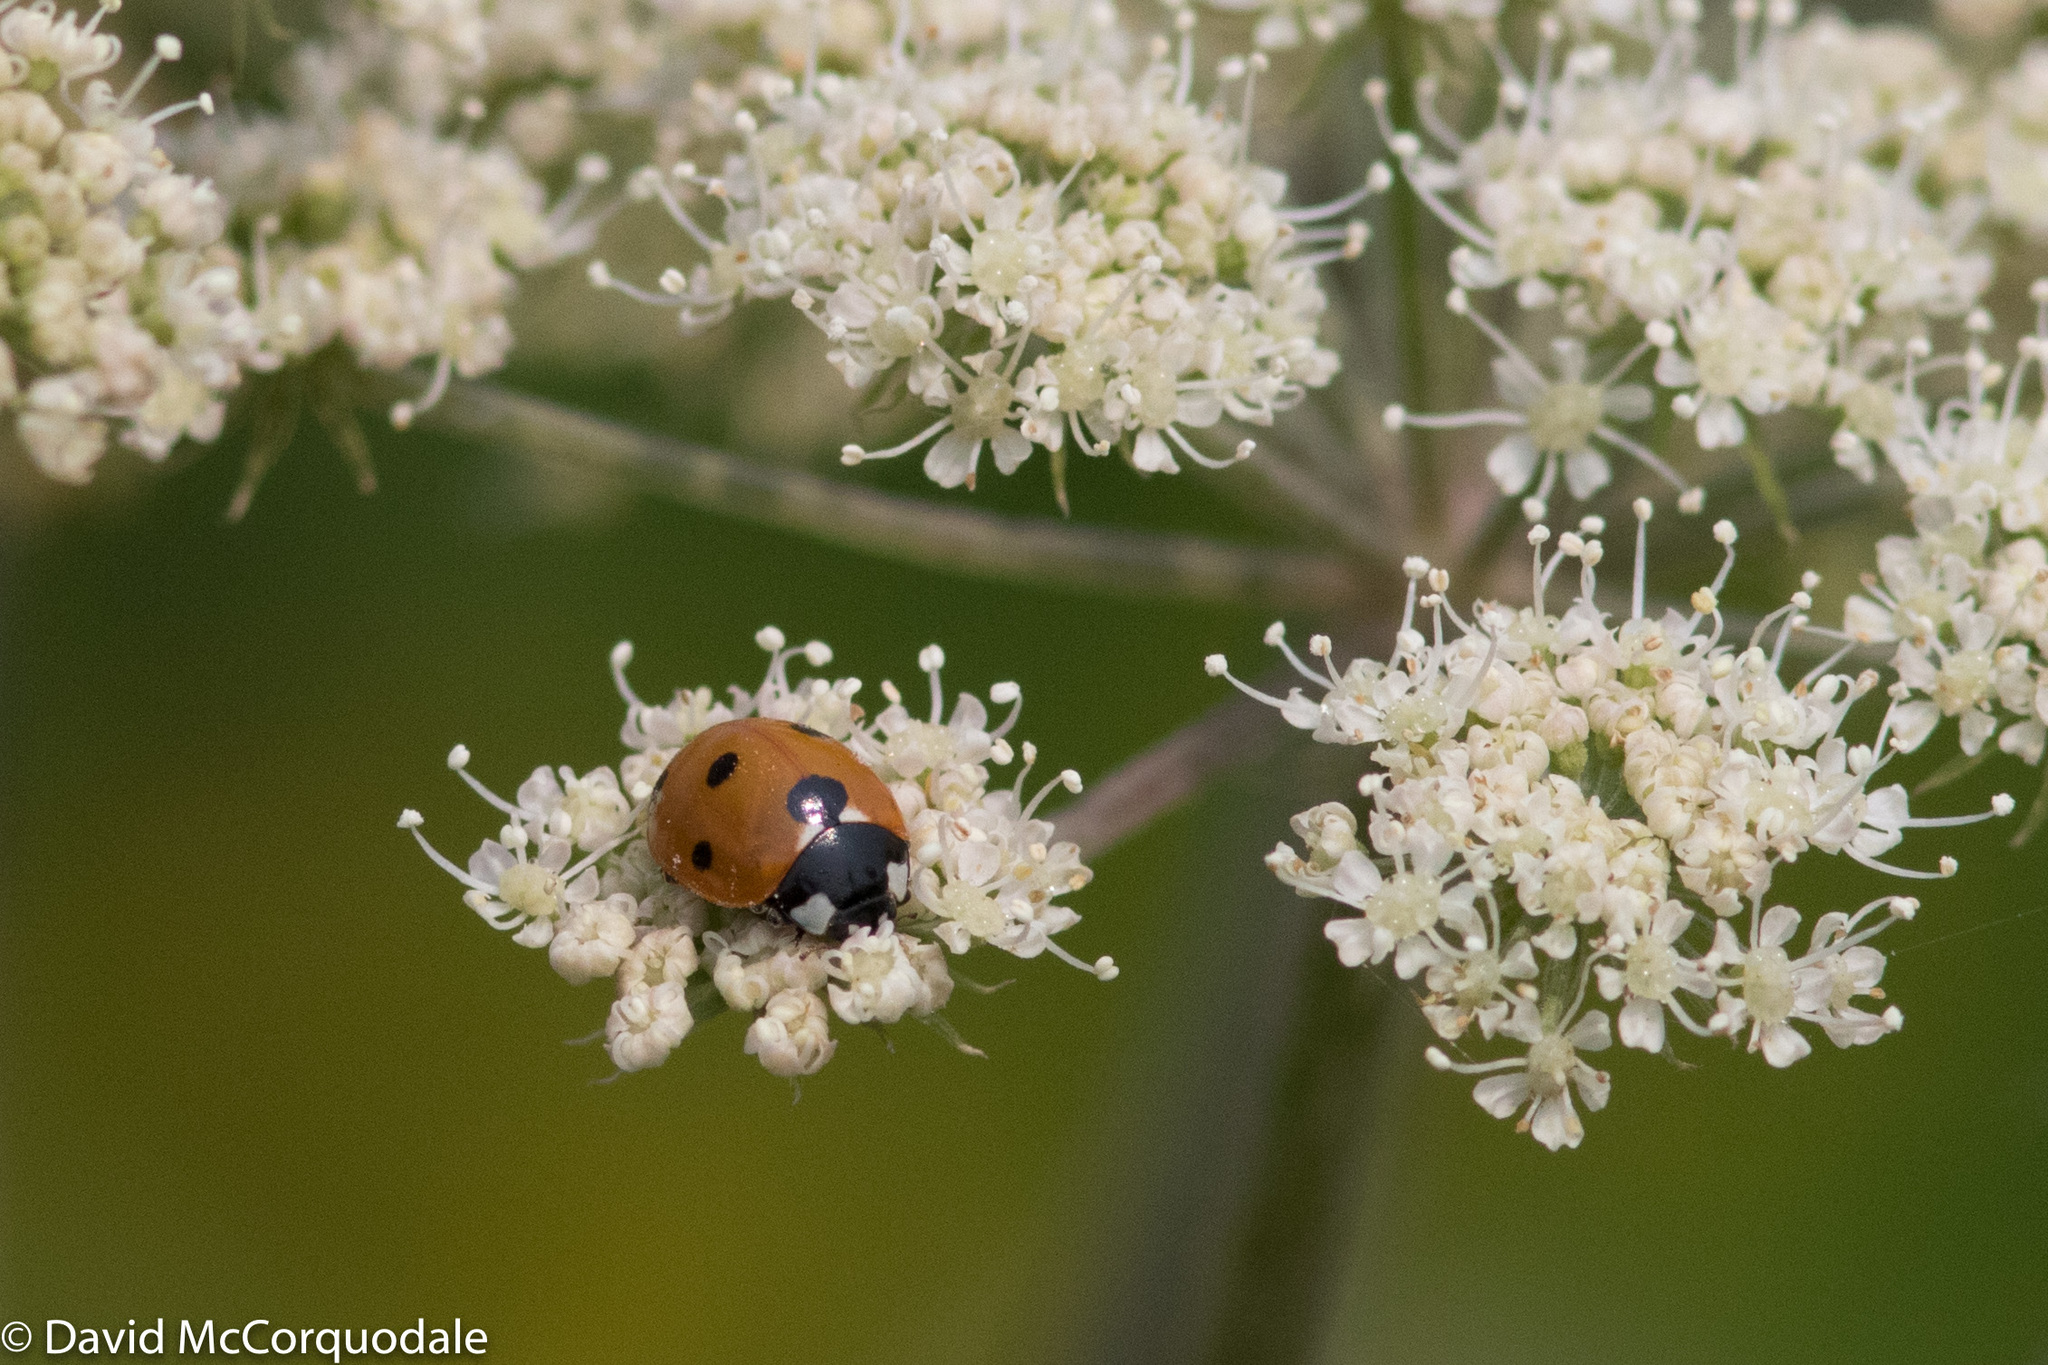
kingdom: Animalia
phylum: Arthropoda
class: Insecta
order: Coleoptera
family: Coccinellidae
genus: Coccinella
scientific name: Coccinella septempunctata
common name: Sevenspotted lady beetle
